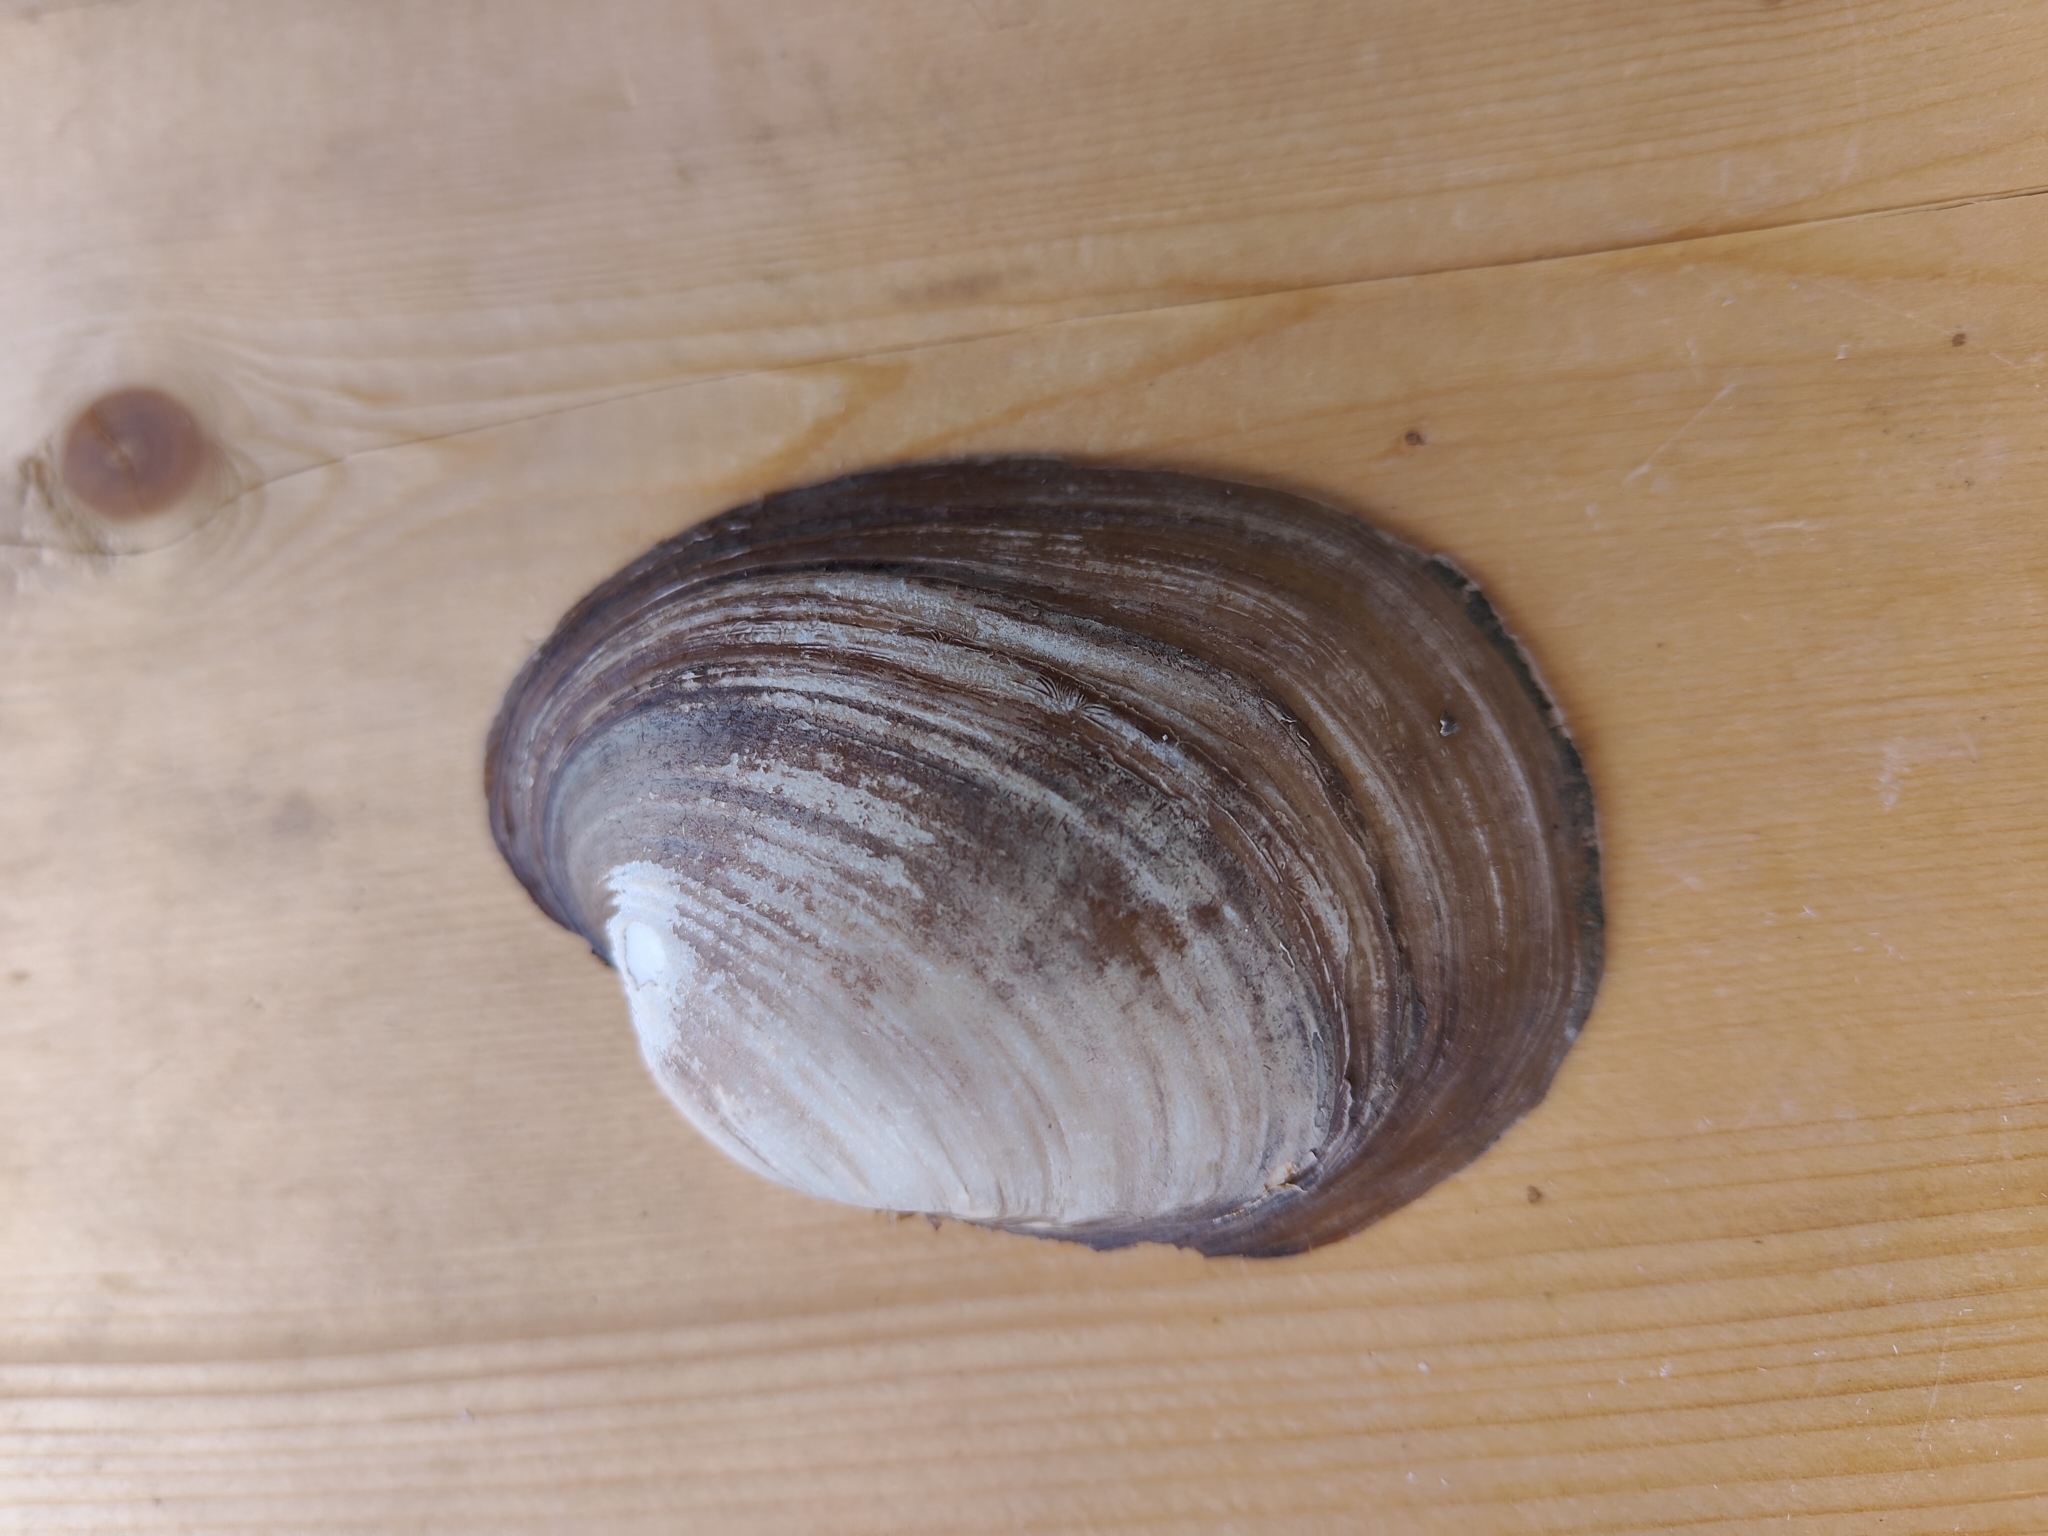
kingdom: Animalia
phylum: Mollusca
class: Bivalvia
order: Unionida
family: Unionidae
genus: Lampsilis
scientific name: Lampsilis cardium
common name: Plain pocketbook
